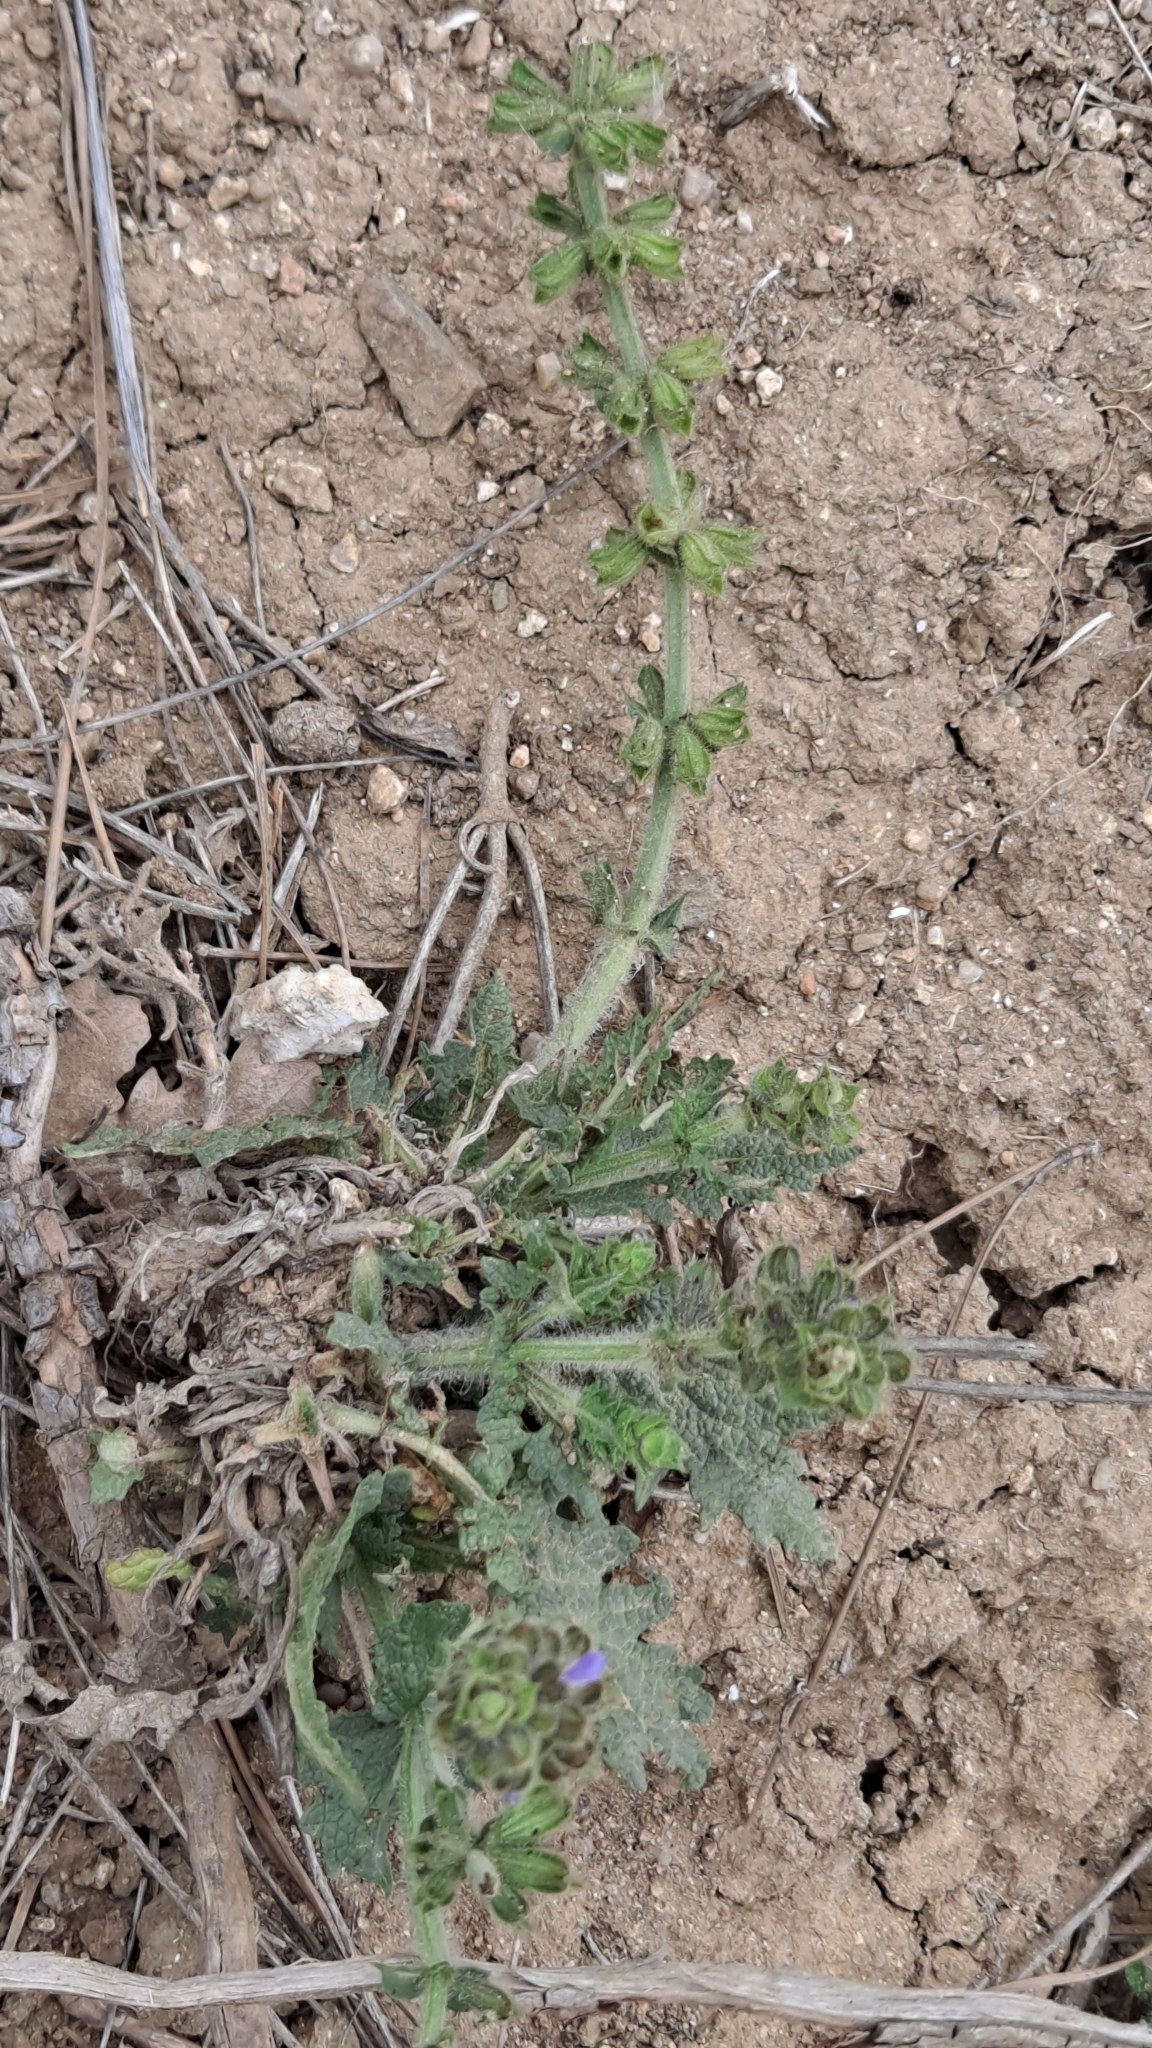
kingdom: Plantae
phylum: Tracheophyta
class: Magnoliopsida
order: Lamiales
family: Lamiaceae
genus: Salvia
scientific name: Salvia verbenaca
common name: Wild clary
